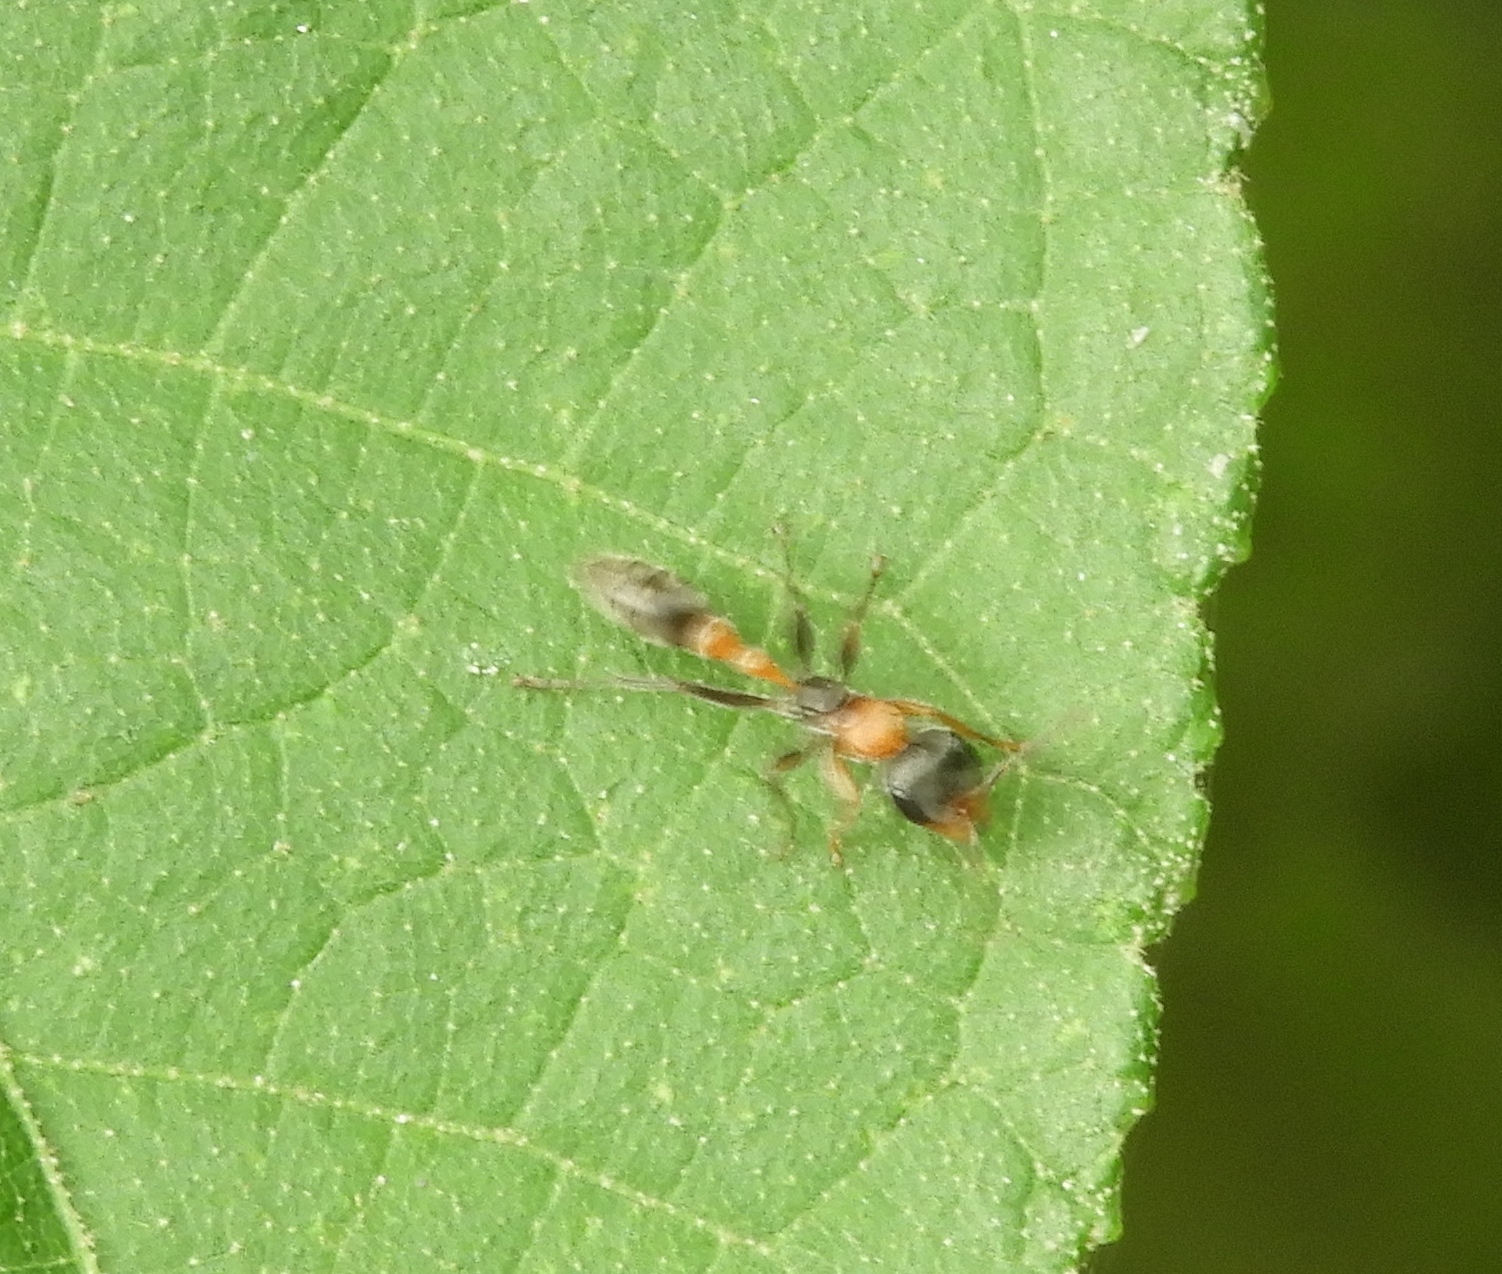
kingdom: Animalia
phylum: Arthropoda
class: Insecta
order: Hymenoptera
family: Formicidae
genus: Pseudomyrmex
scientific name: Pseudomyrmex gracilis
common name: Graceful twig ant
